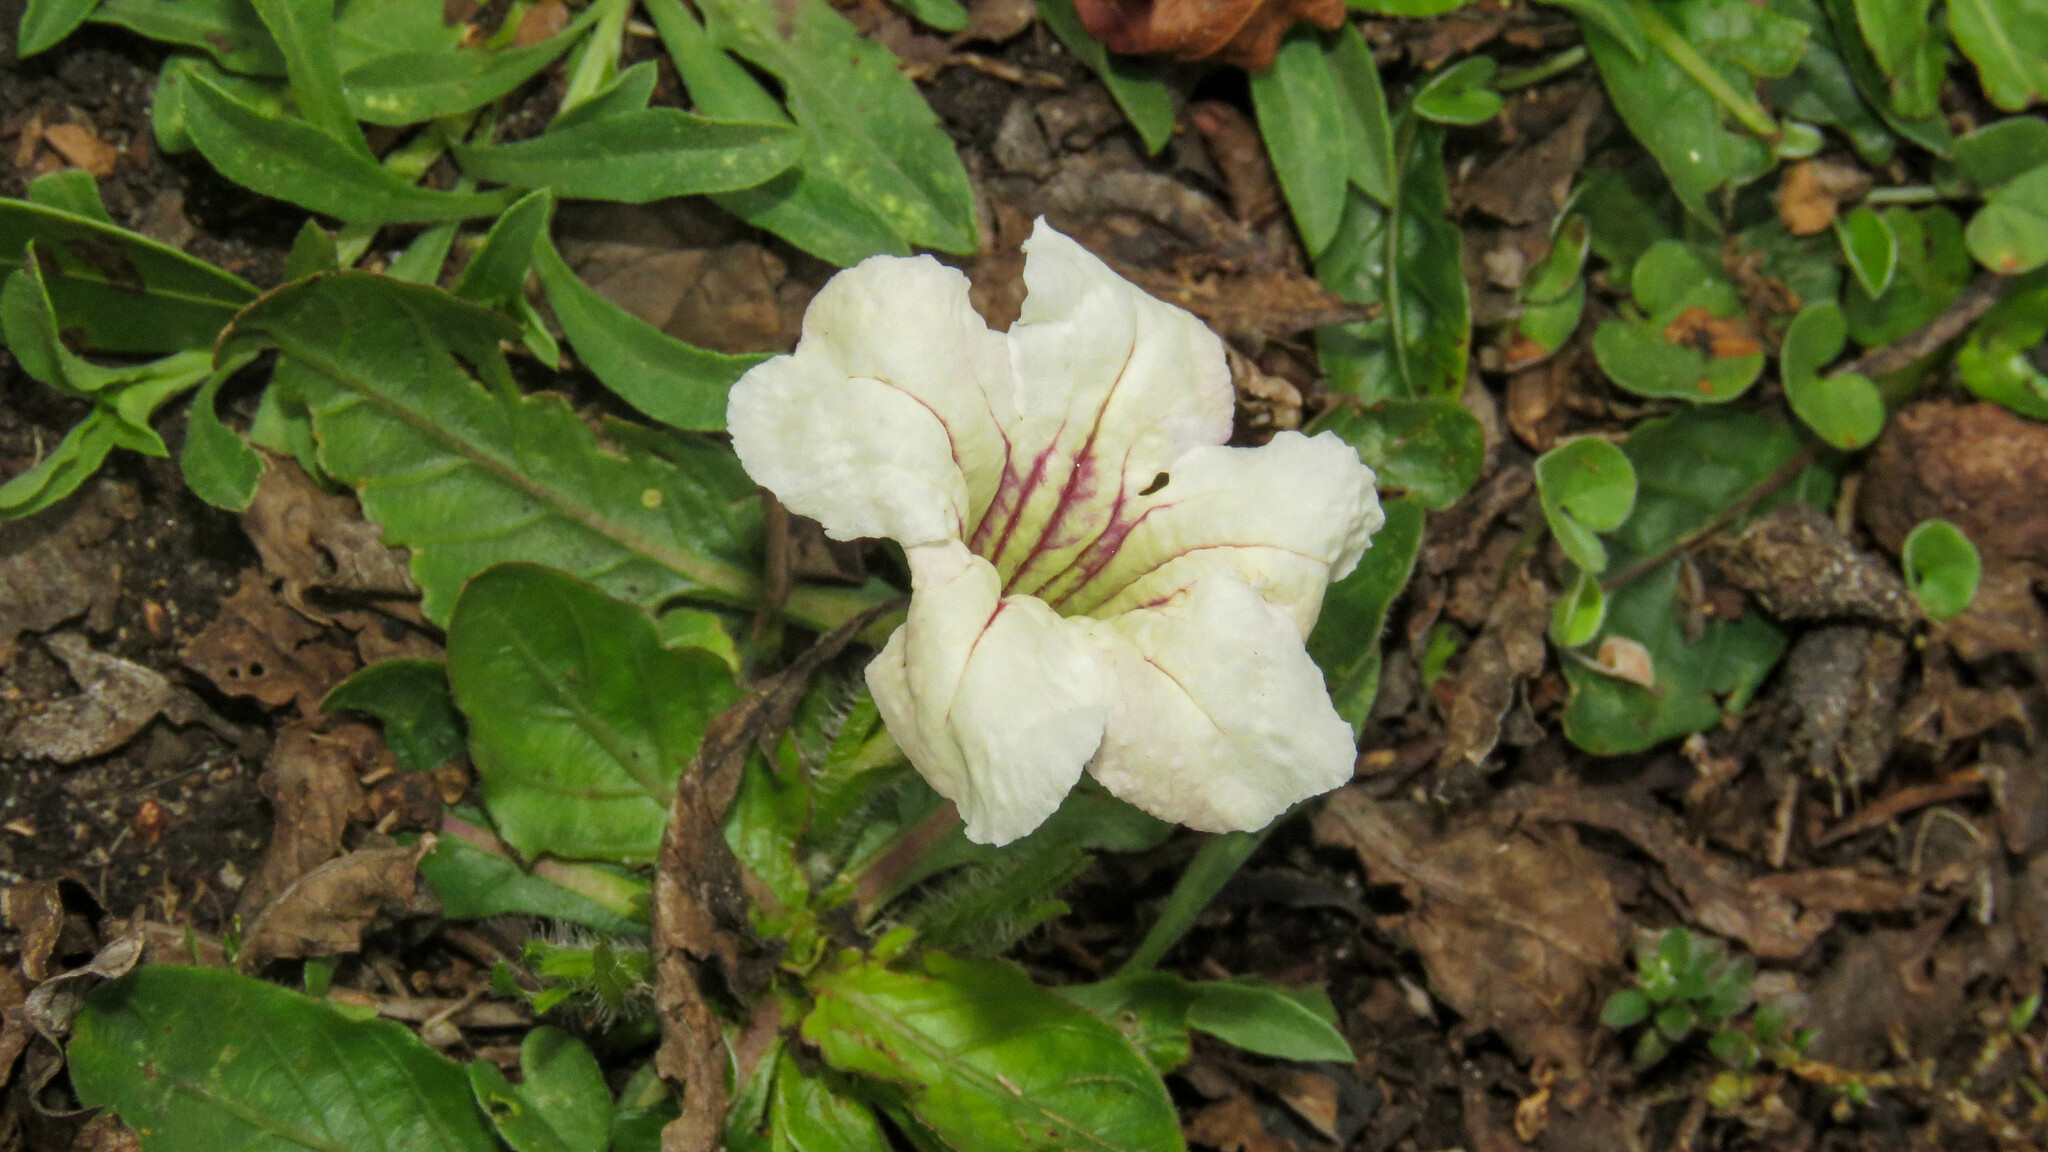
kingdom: Plantae
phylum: Tracheophyta
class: Magnoliopsida
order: Lamiales
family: Acanthaceae
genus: Ruellia
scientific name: Ruellia morongii
